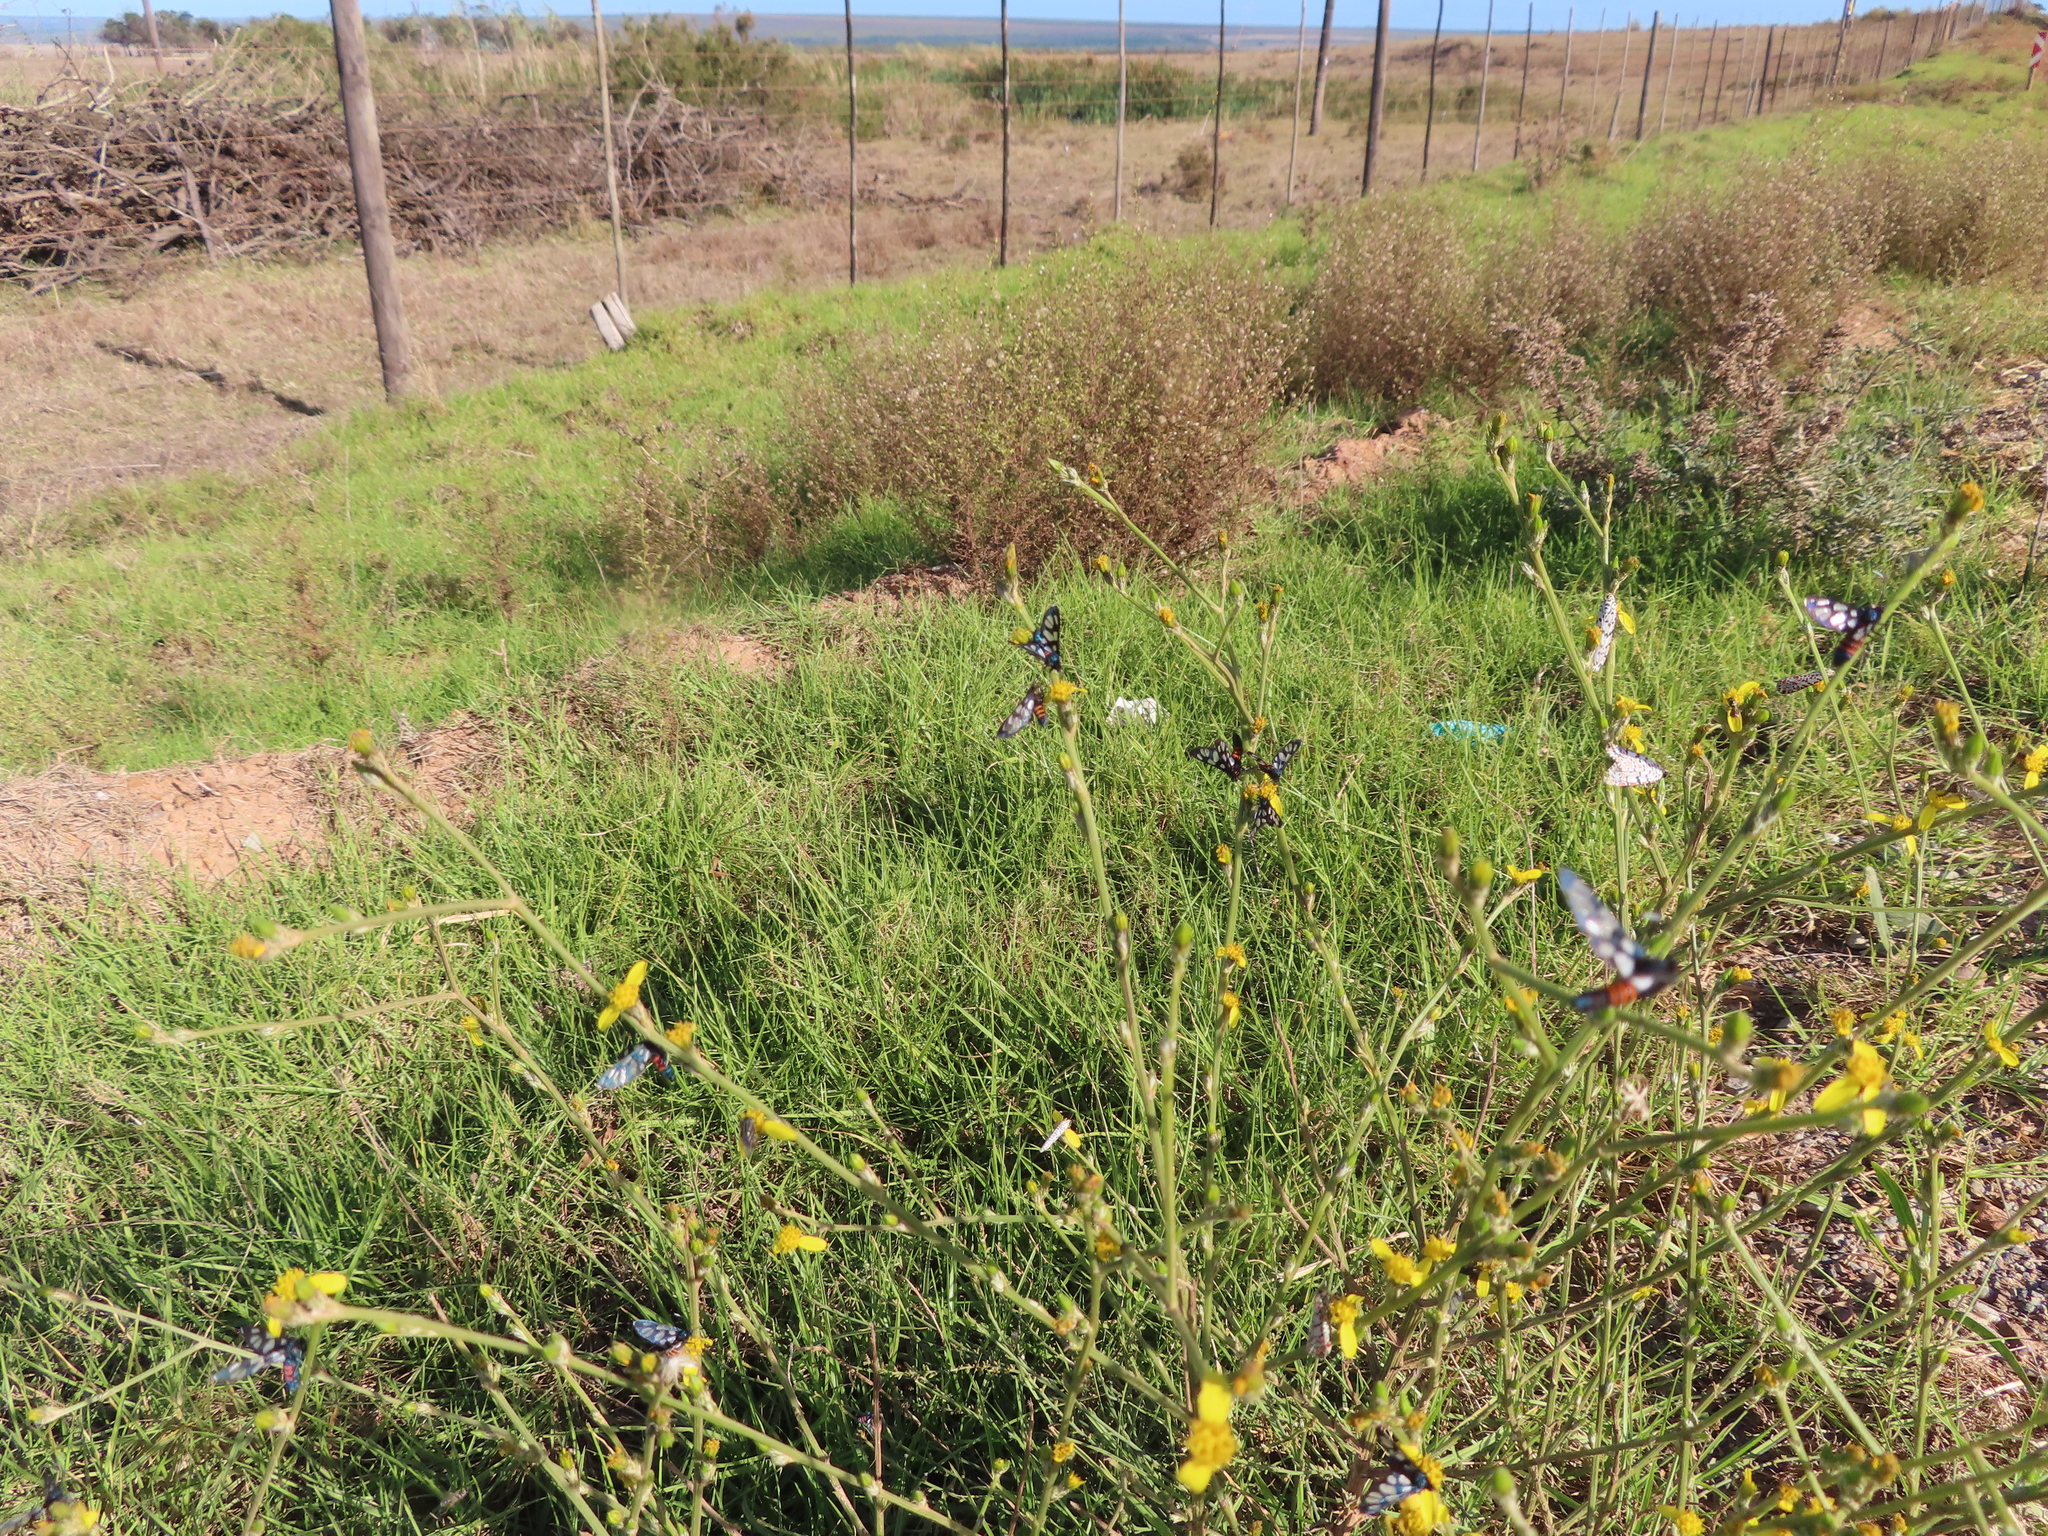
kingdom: Animalia
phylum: Arthropoda
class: Insecta
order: Lepidoptera
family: Erebidae
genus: Amata
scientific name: Amata cerbera
